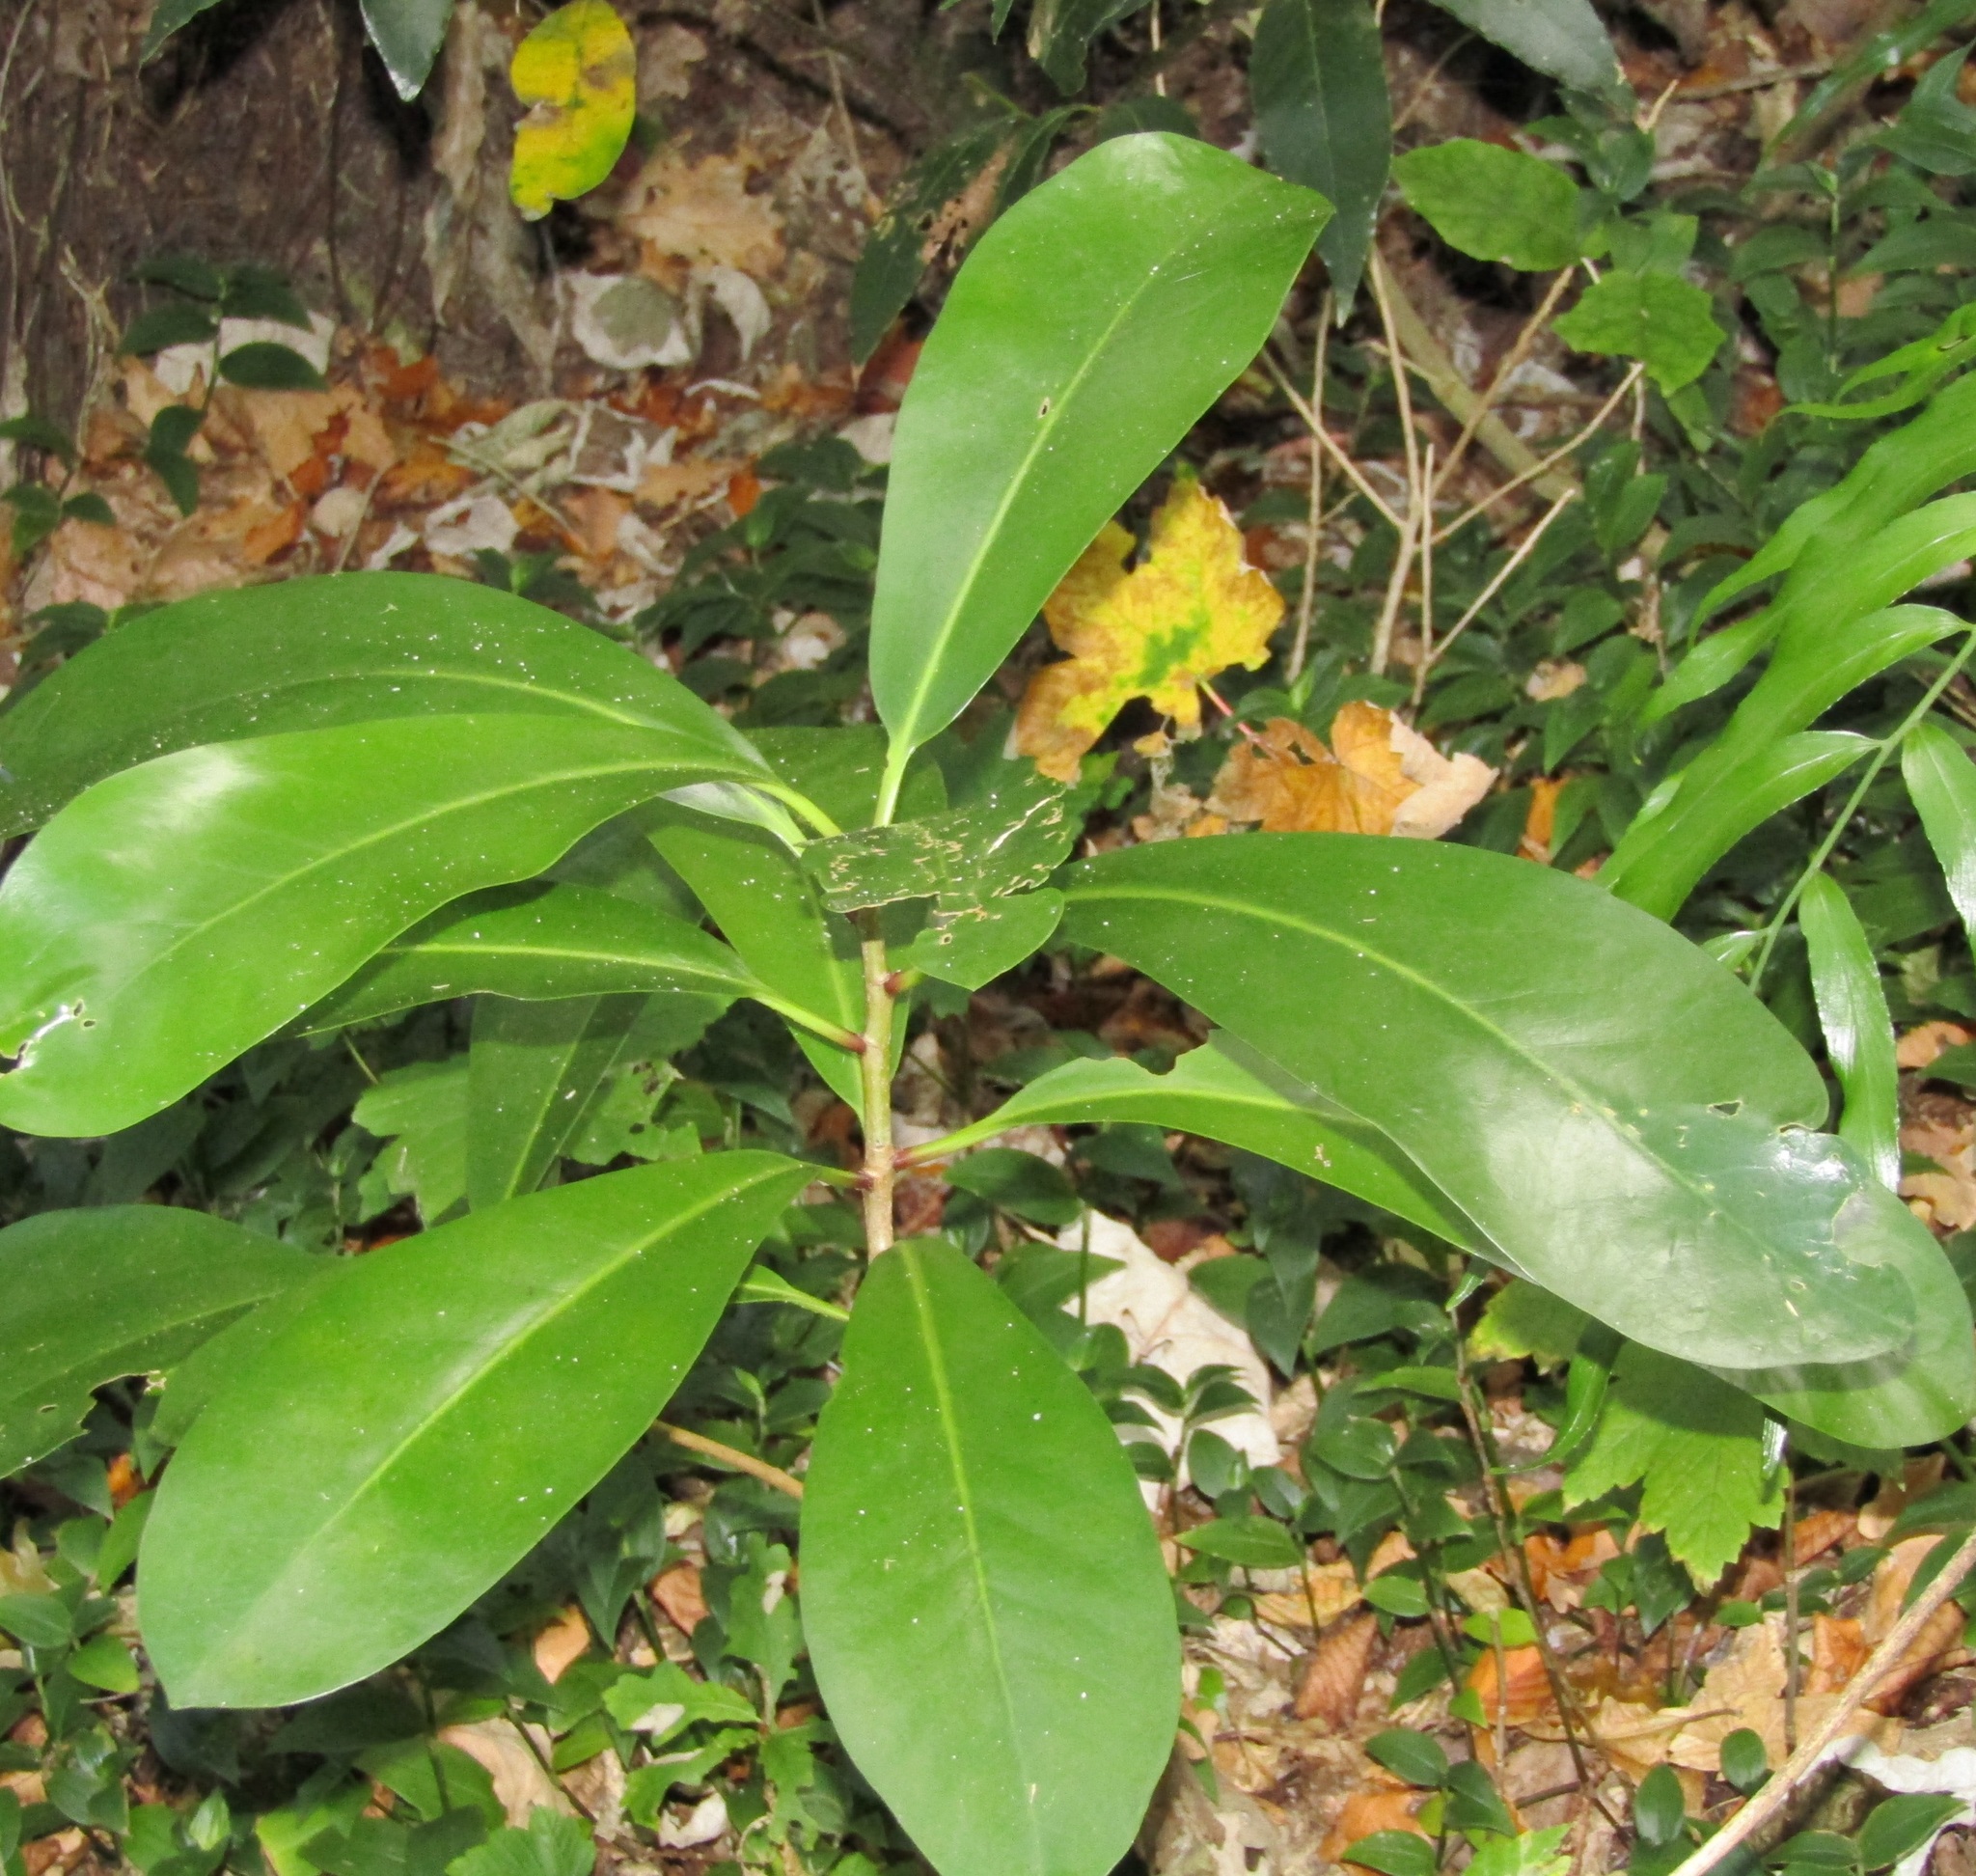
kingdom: Plantae
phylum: Tracheophyta
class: Magnoliopsida
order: Cucurbitales
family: Corynocarpaceae
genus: Corynocarpus
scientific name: Corynocarpus laevigatus
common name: New zealand laurel
